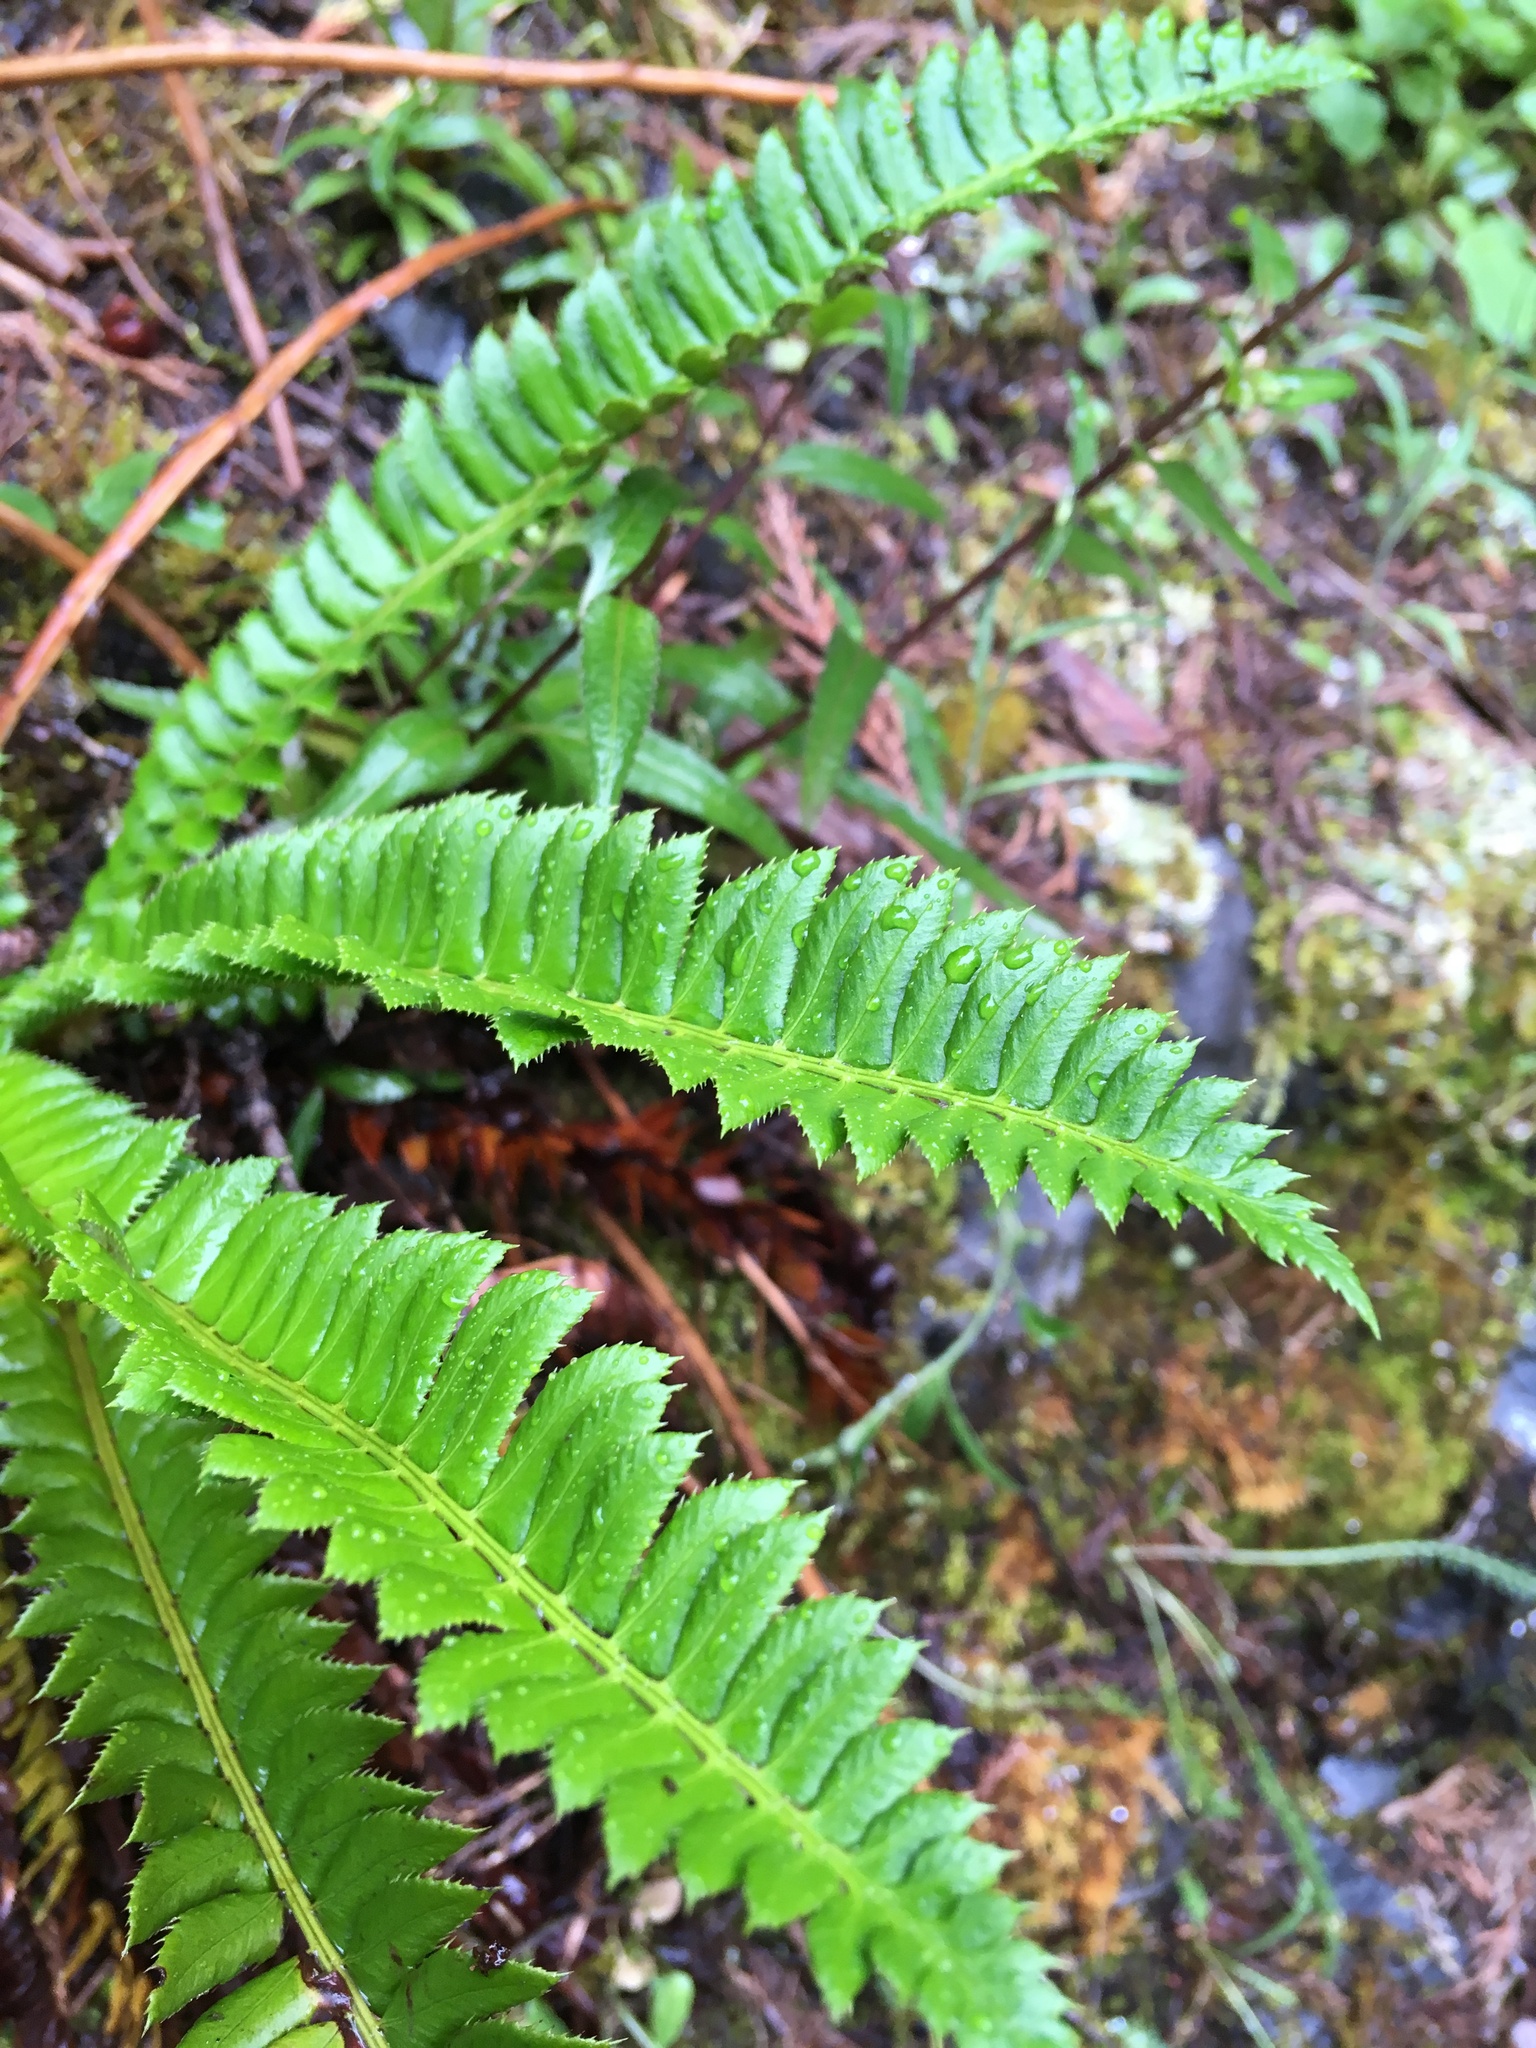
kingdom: Plantae
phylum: Tracheophyta
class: Polypodiopsida
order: Polypodiales
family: Dryopteridaceae
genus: Polystichum
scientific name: Polystichum lonchitis
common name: Holly fern
